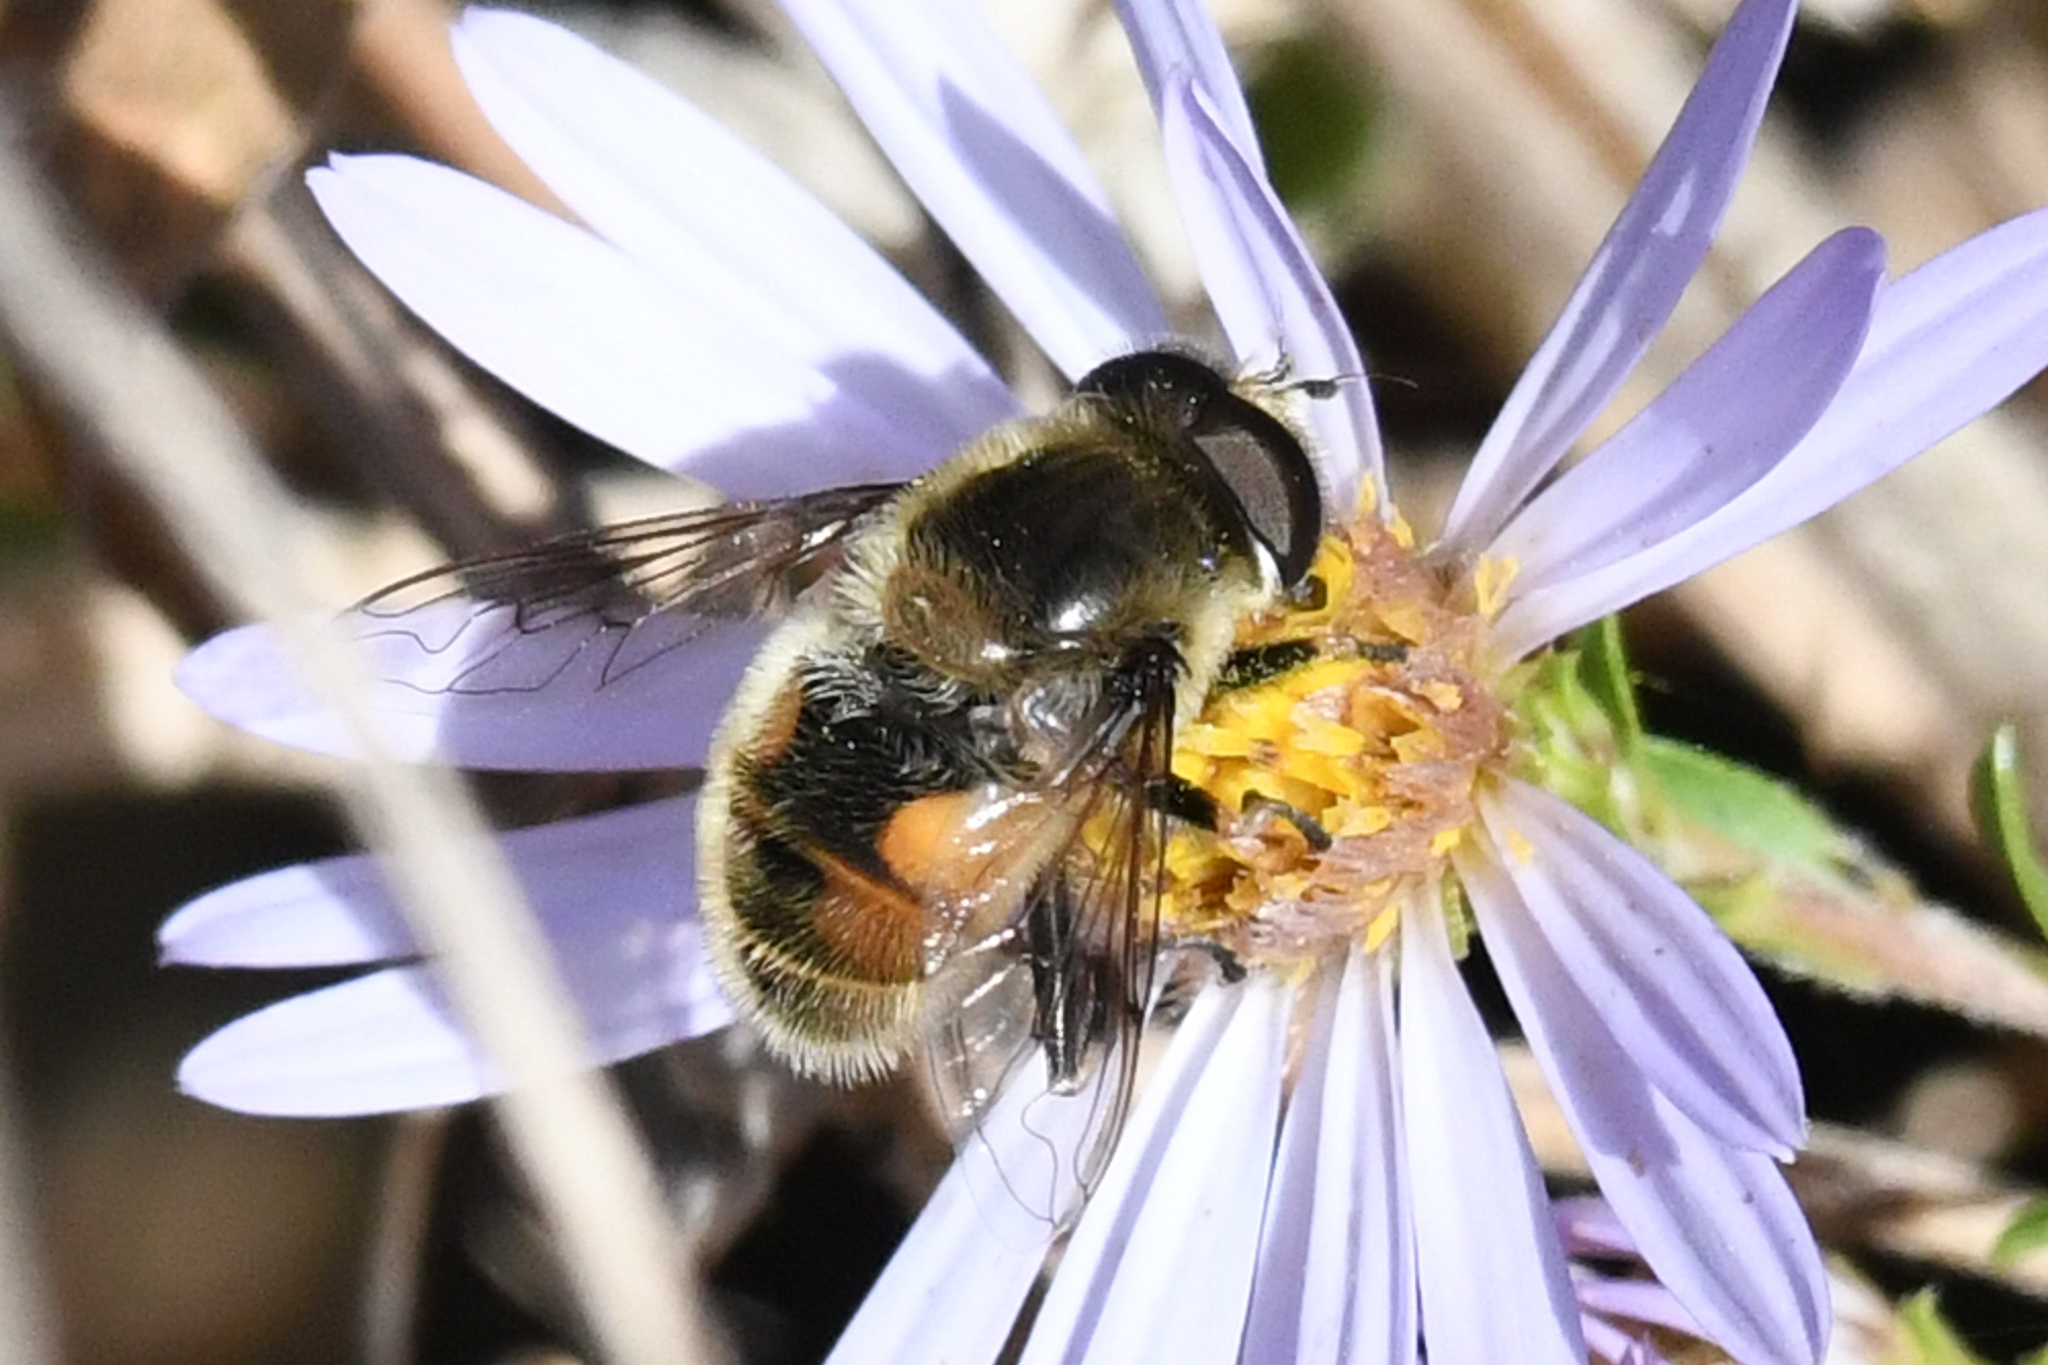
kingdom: Animalia
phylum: Arthropoda
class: Insecta
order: Diptera
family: Syrphidae
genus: Eristalis
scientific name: Eristalis anthophorina
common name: Orange-spotted drone fly
